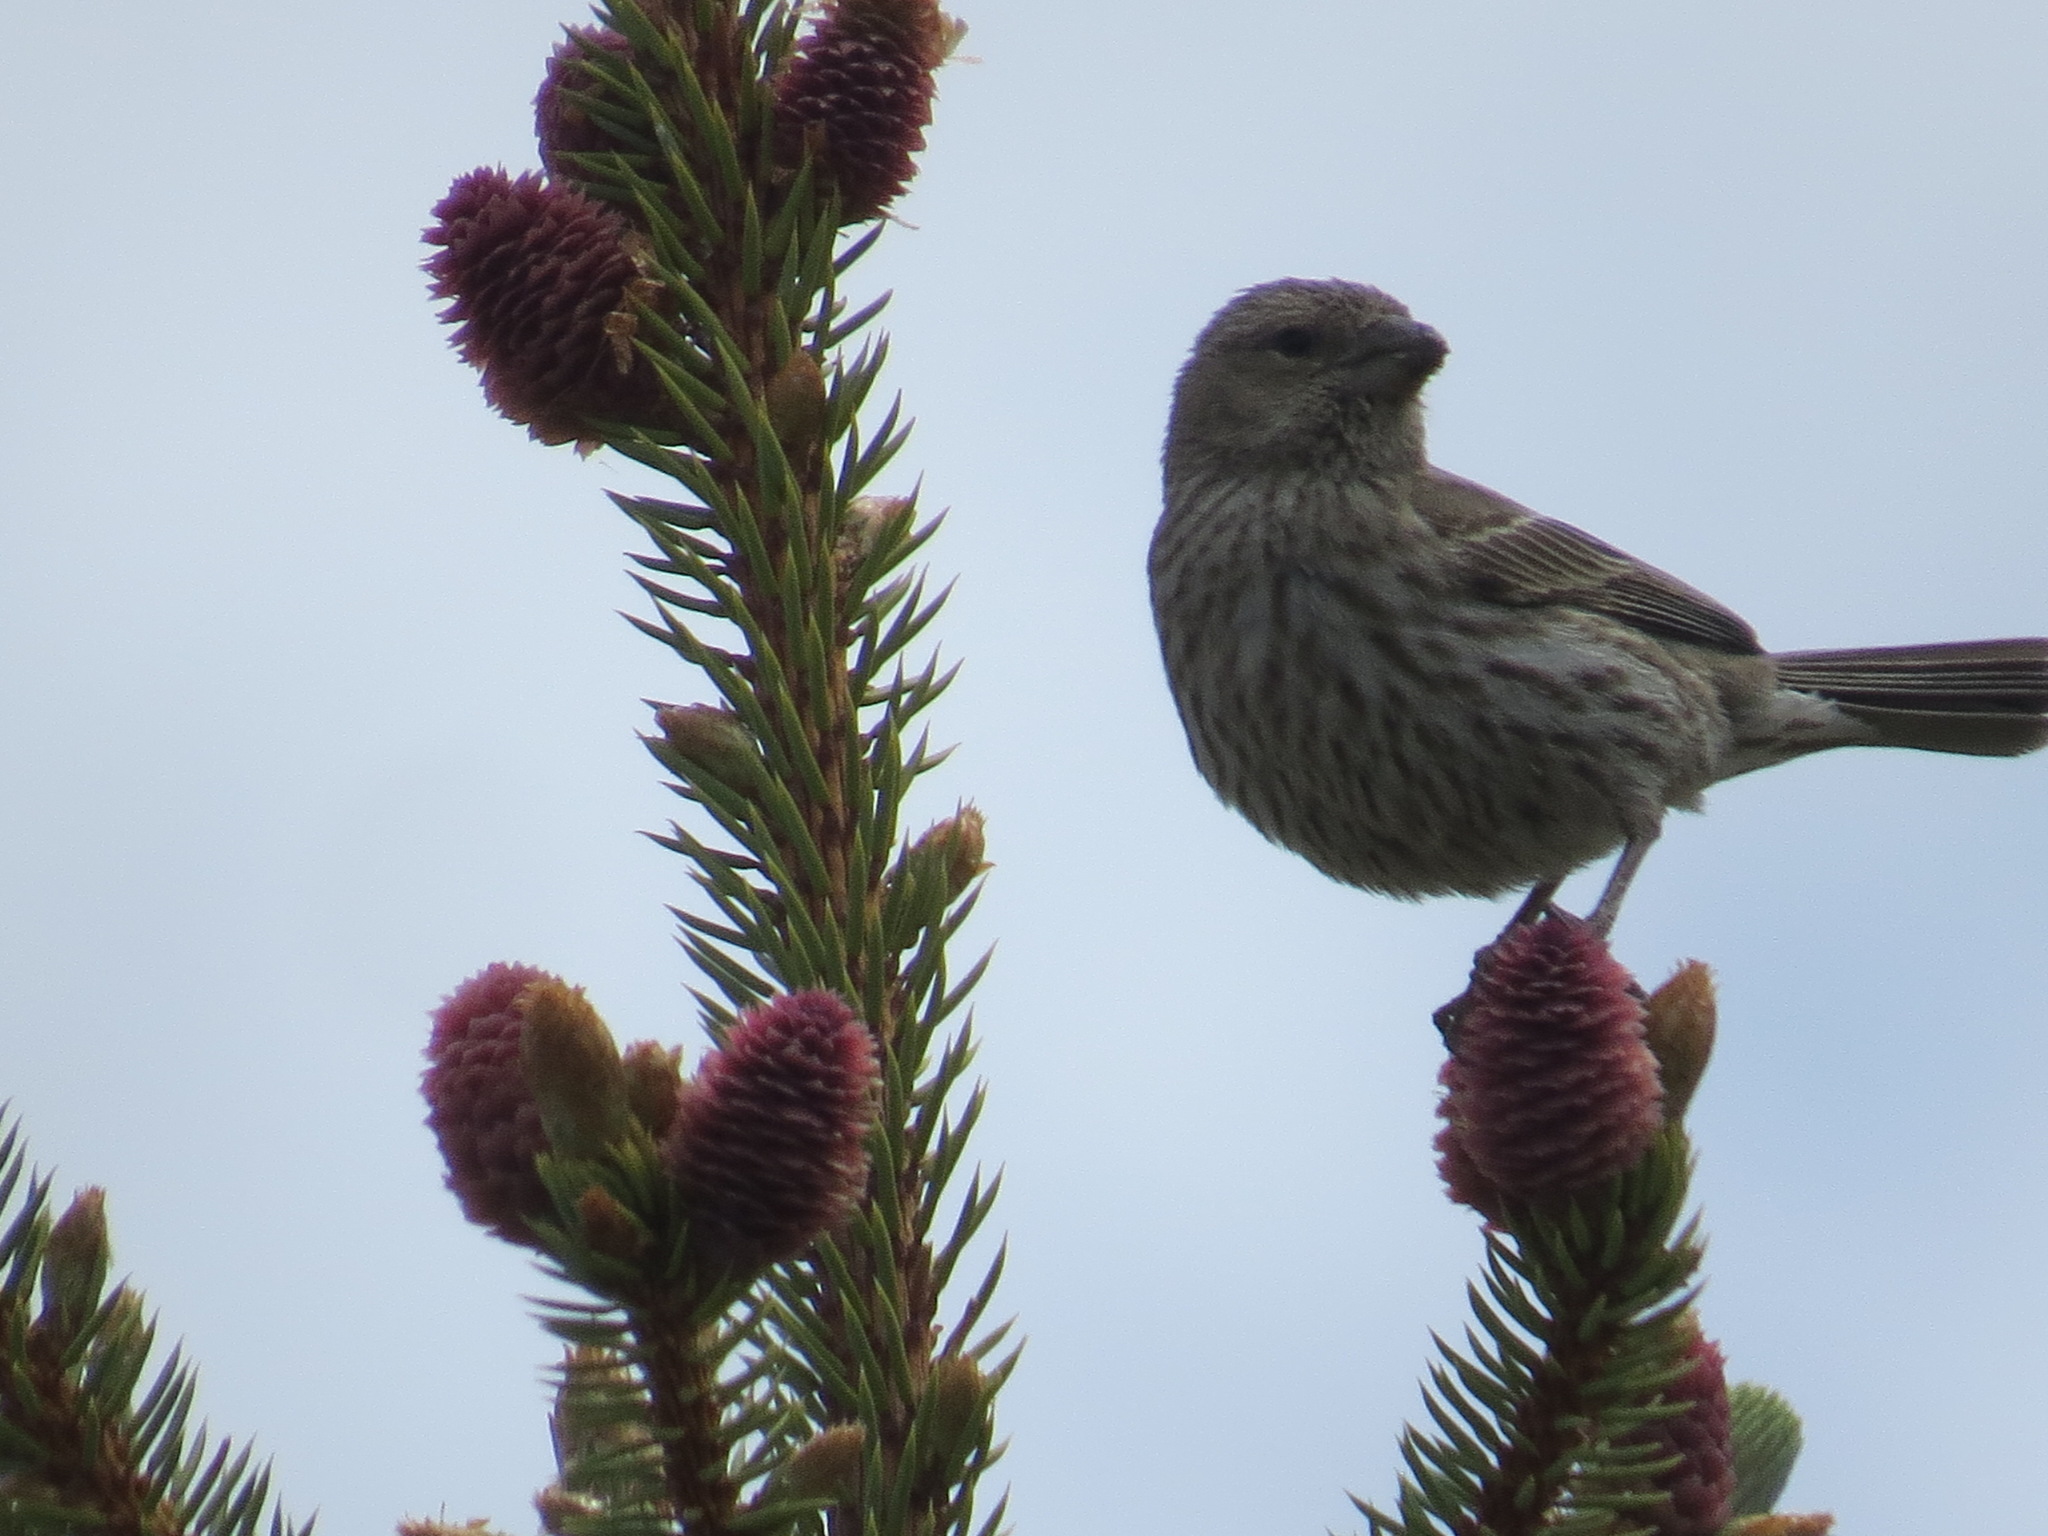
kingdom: Animalia
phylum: Chordata
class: Aves
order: Passeriformes
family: Fringillidae
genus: Haemorhous
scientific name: Haemorhous mexicanus
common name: House finch
